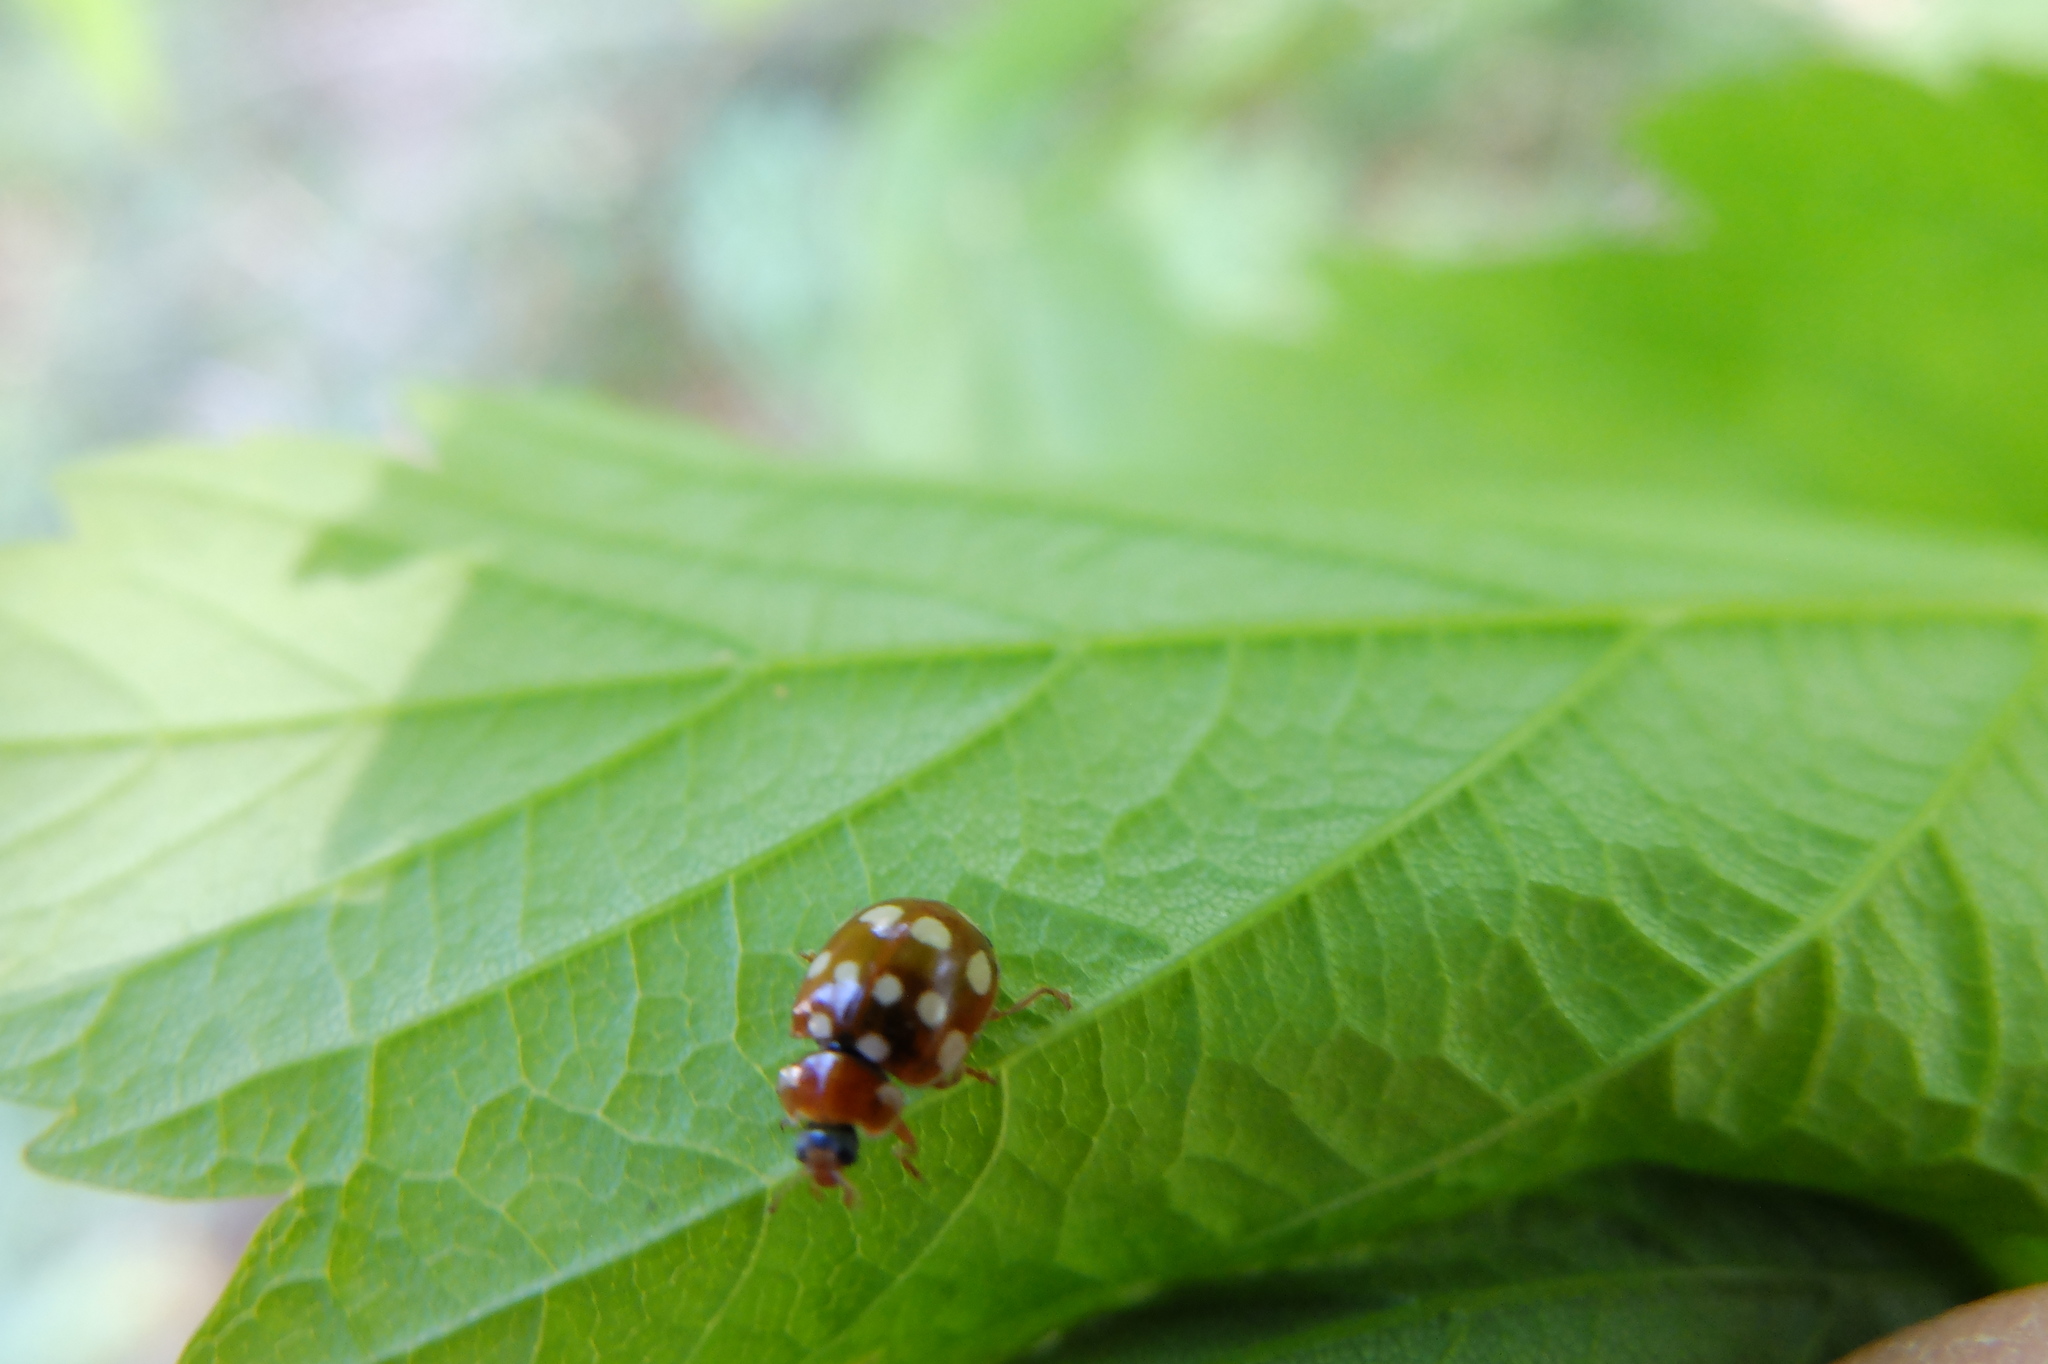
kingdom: Animalia
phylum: Arthropoda
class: Insecta
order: Coleoptera
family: Coccinellidae
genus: Calvia
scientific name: Calvia quatuordecimguttata
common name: Cream-spot ladybird
